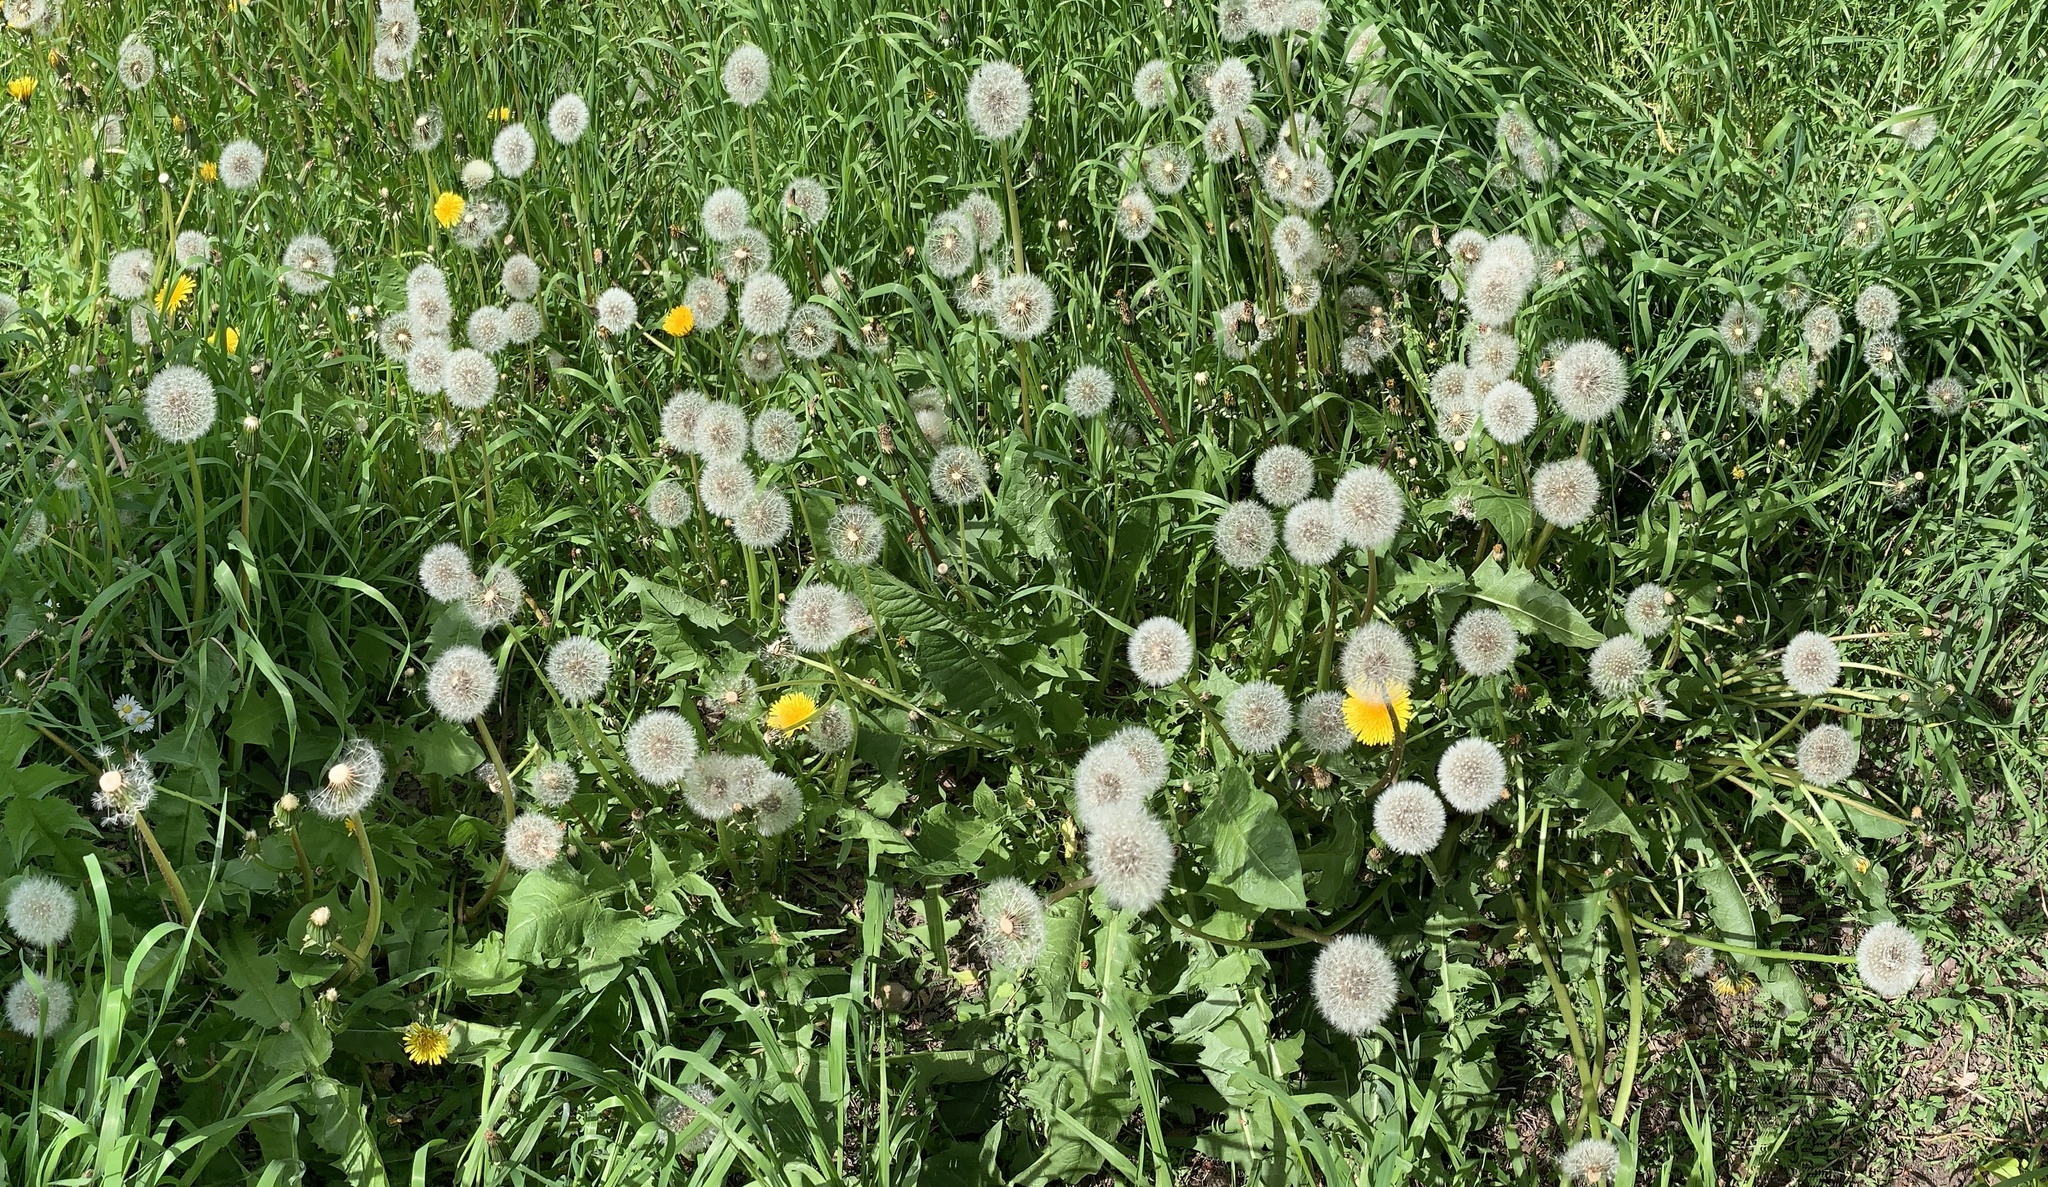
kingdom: Plantae
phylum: Tracheophyta
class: Magnoliopsida
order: Asterales
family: Asteraceae
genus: Taraxacum
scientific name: Taraxacum officinale
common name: Common dandelion
